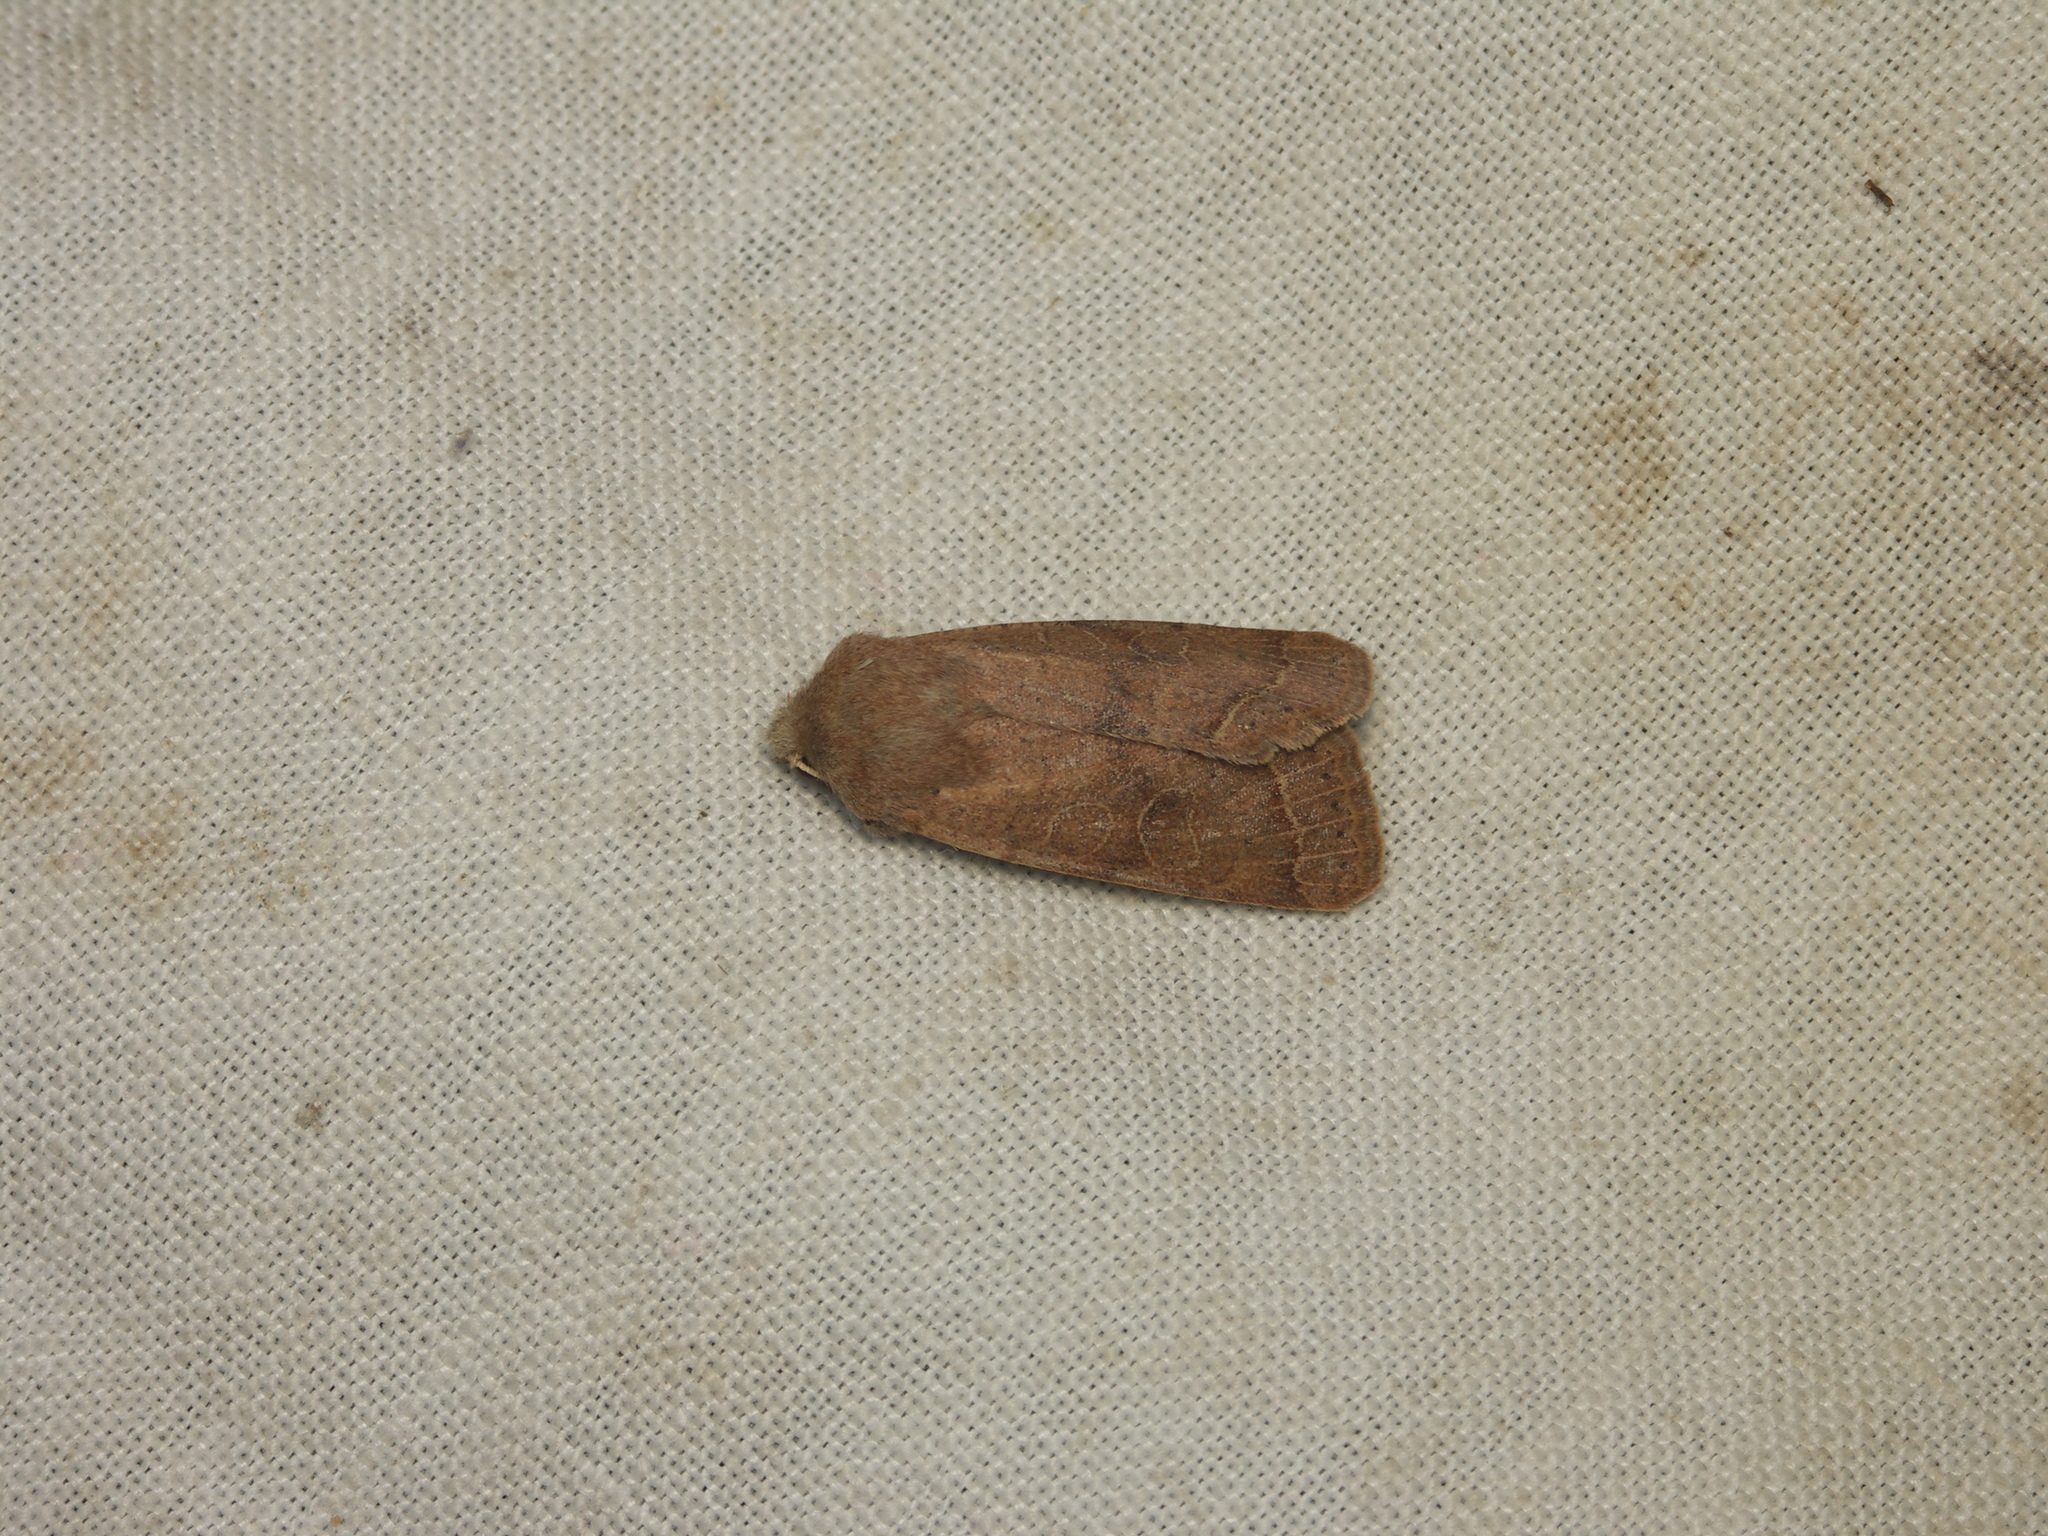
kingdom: Animalia
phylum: Arthropoda
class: Insecta
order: Lepidoptera
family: Noctuidae
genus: Orthosia
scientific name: Orthosia cerasi
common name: Common quaker
